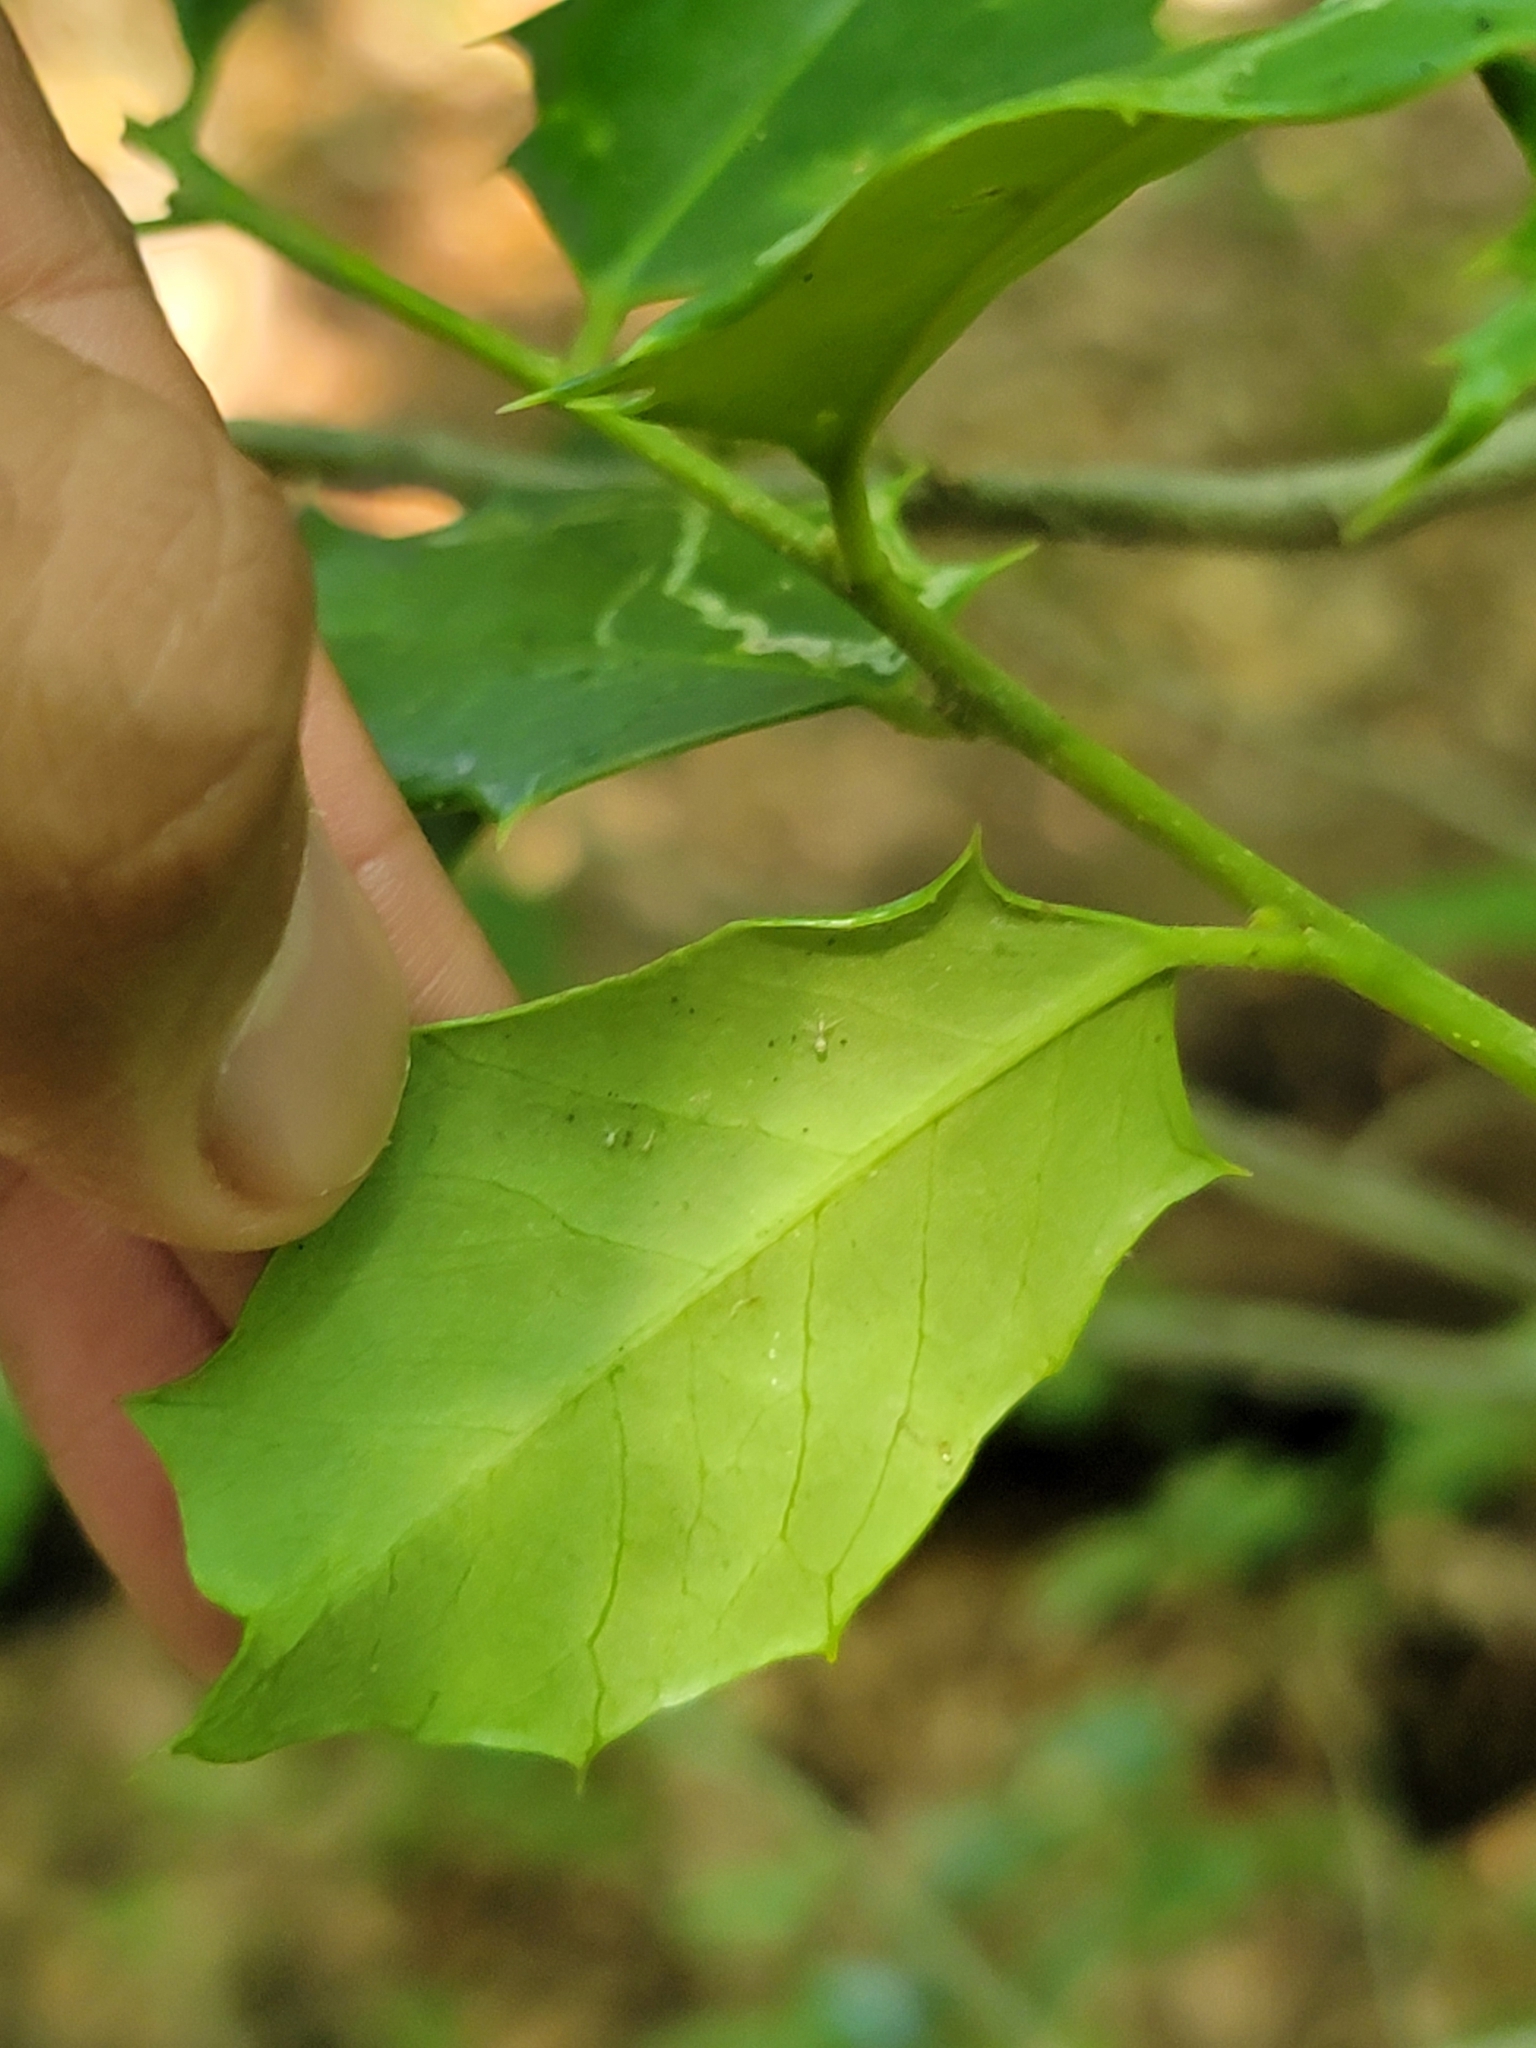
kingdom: Animalia
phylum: Arthropoda
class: Insecta
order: Diptera
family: Agromyzidae
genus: Phytomyza
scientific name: Phytomyza opacae
